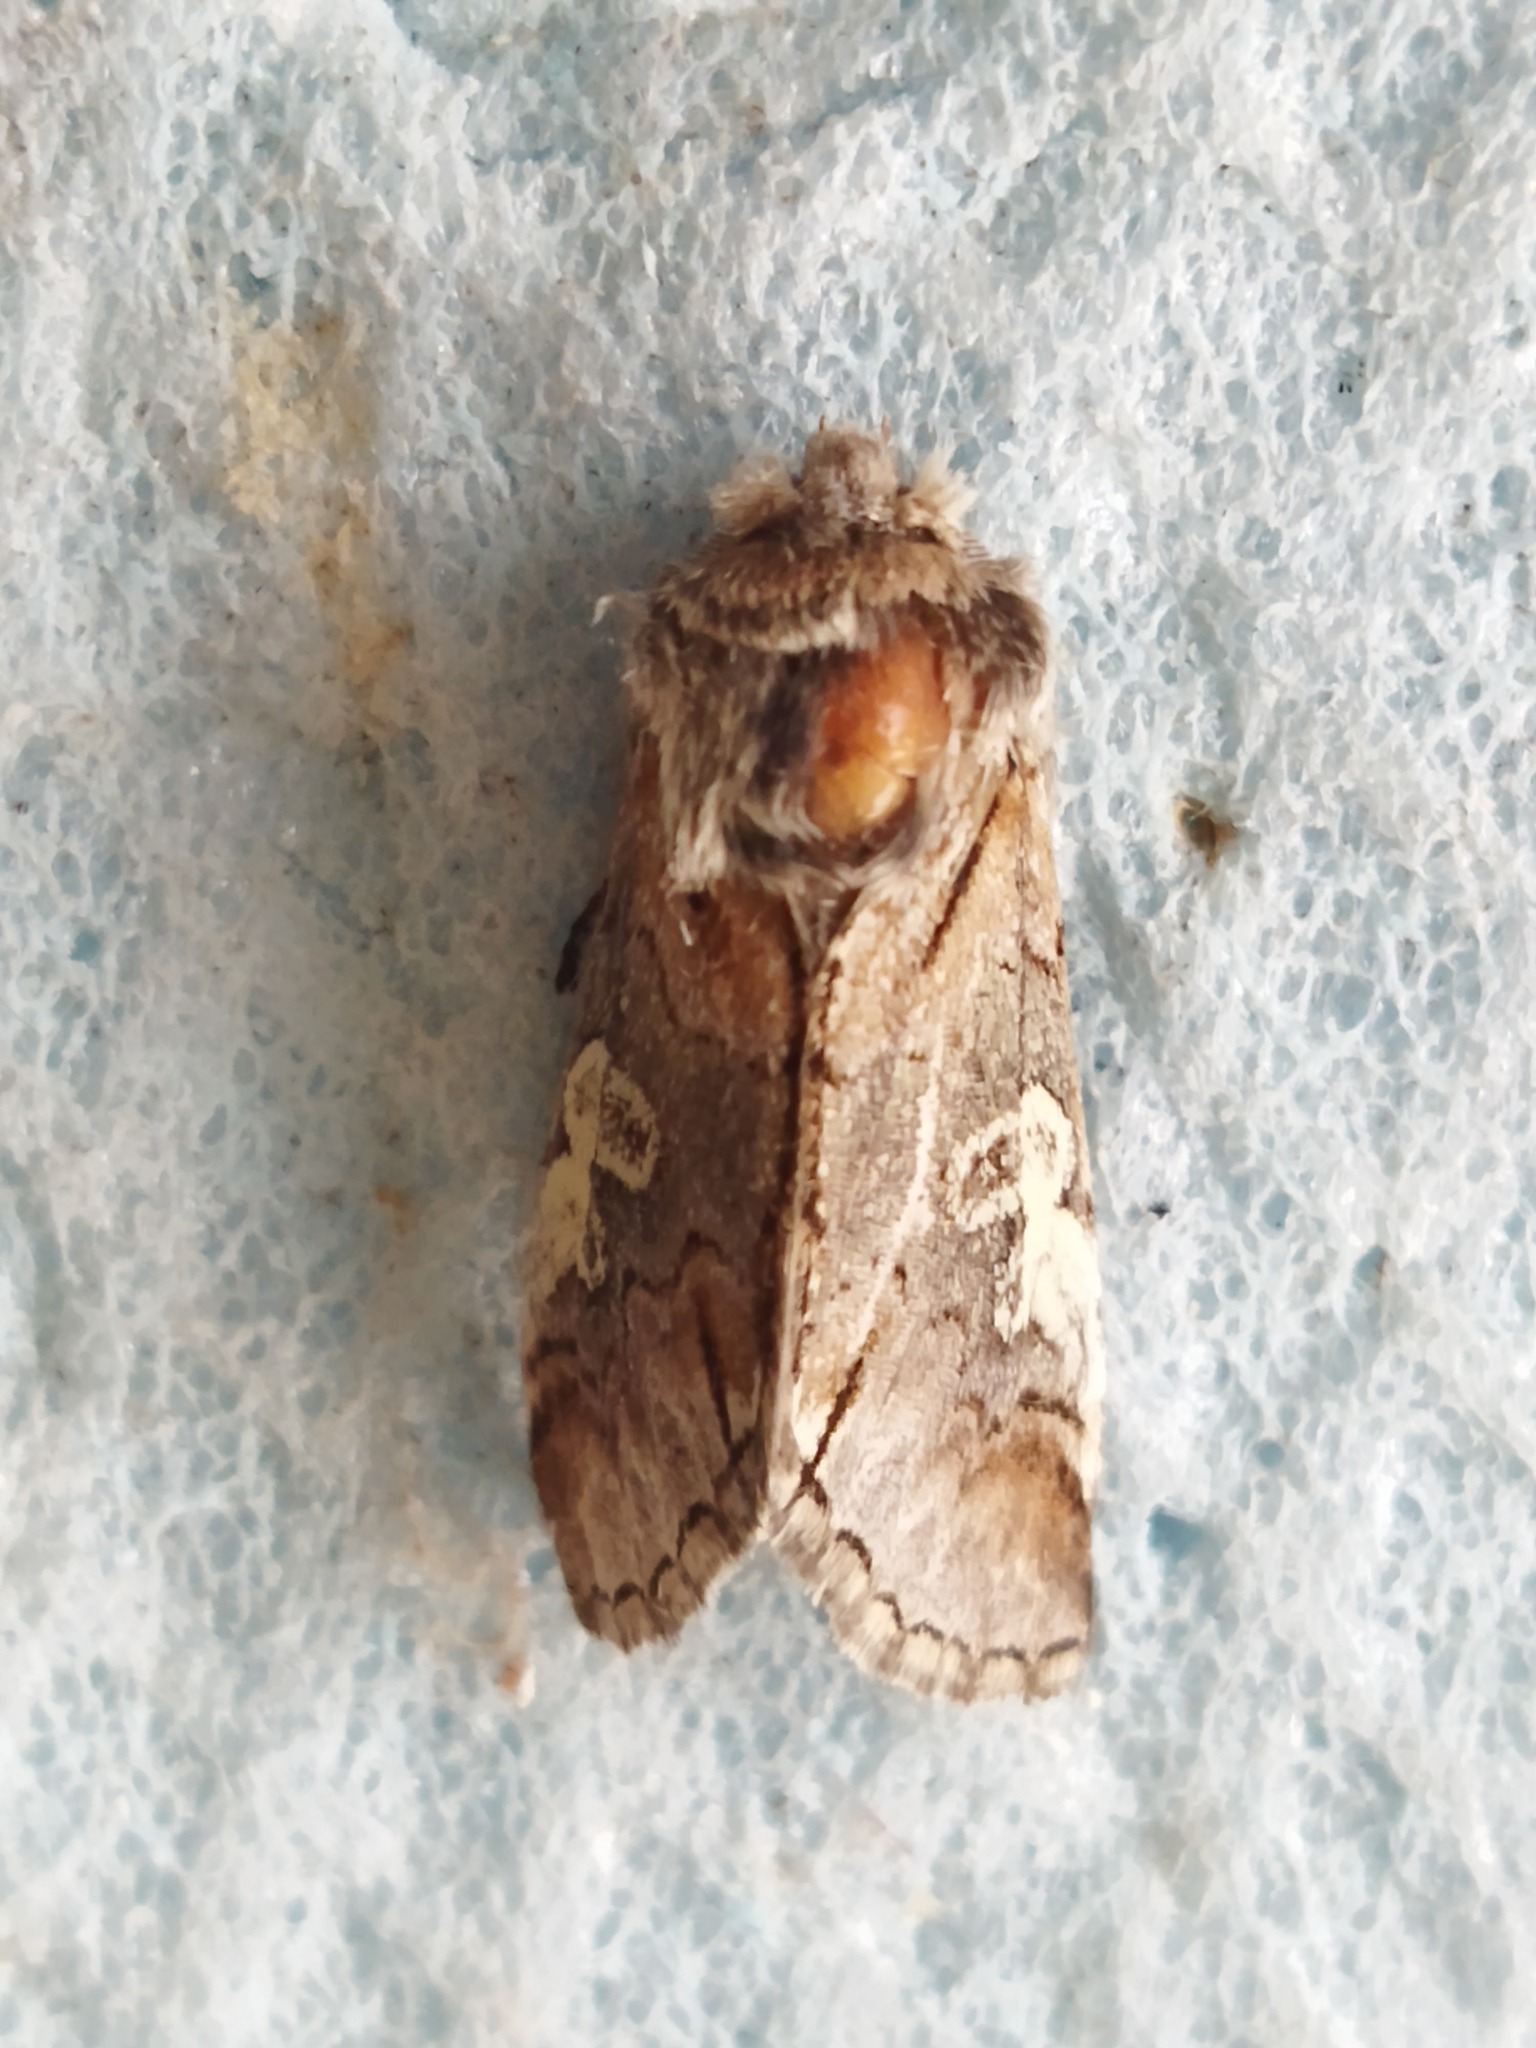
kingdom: Animalia
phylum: Arthropoda
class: Insecta
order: Lepidoptera
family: Noctuidae
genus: Diloba
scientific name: Diloba caeruleocephala
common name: Figure of eight
